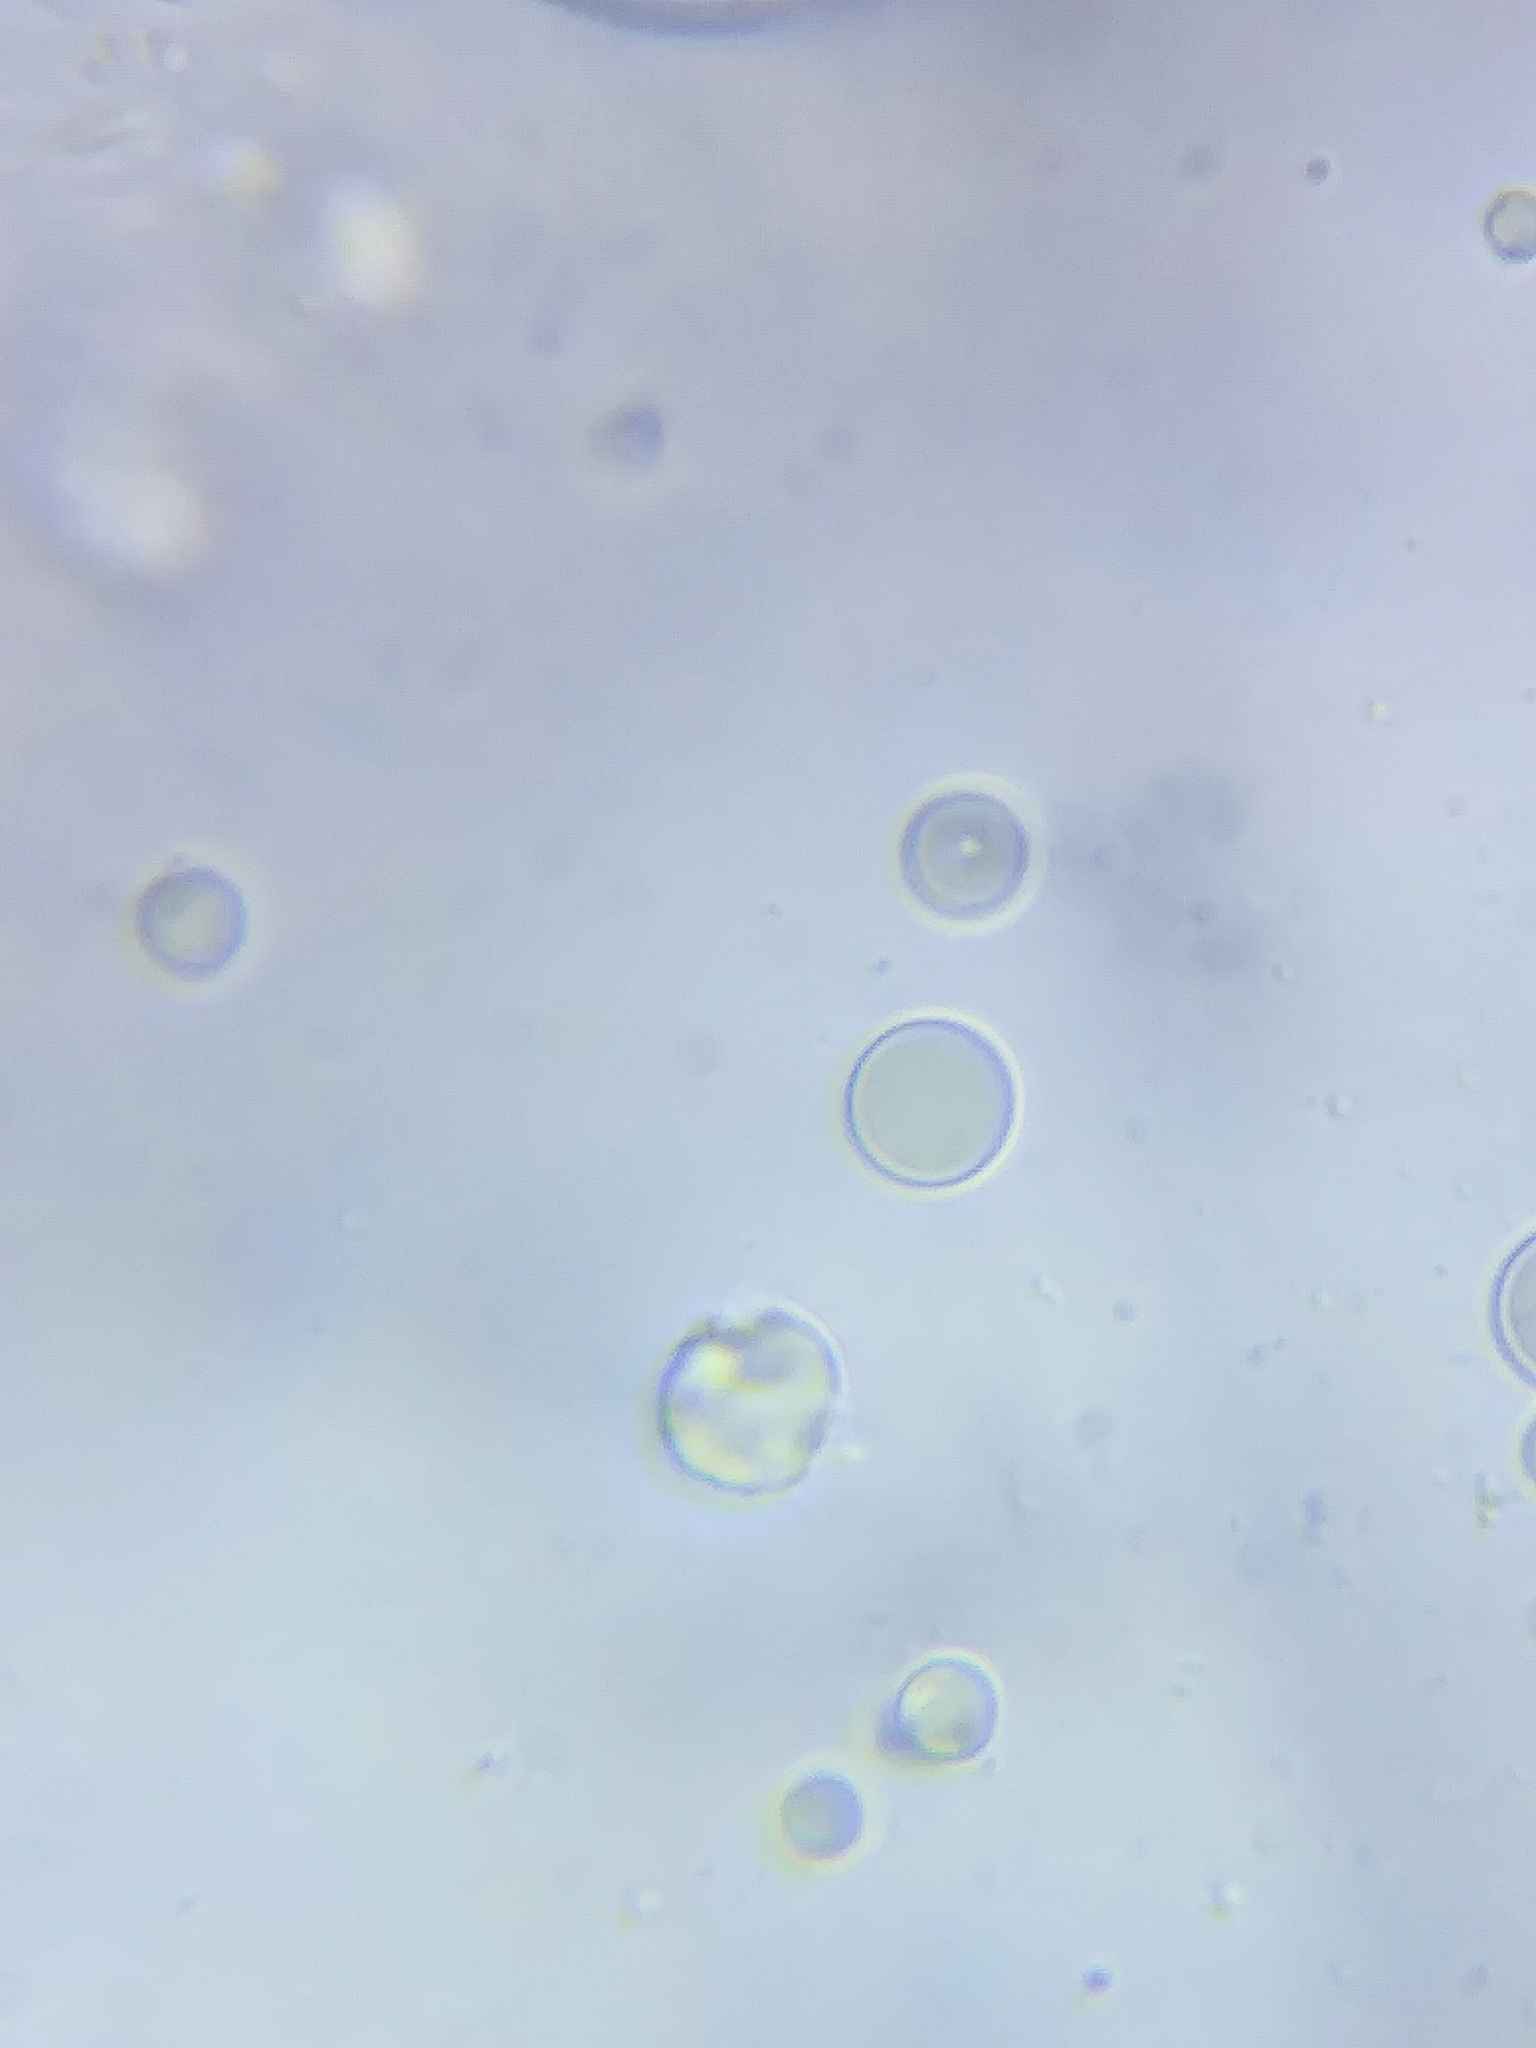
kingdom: Fungi
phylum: Basidiomycota
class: Agaricomycetes
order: Agaricales
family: Mycenaceae
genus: Mycena
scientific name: Mycena galericulata
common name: Bonnet mycena
